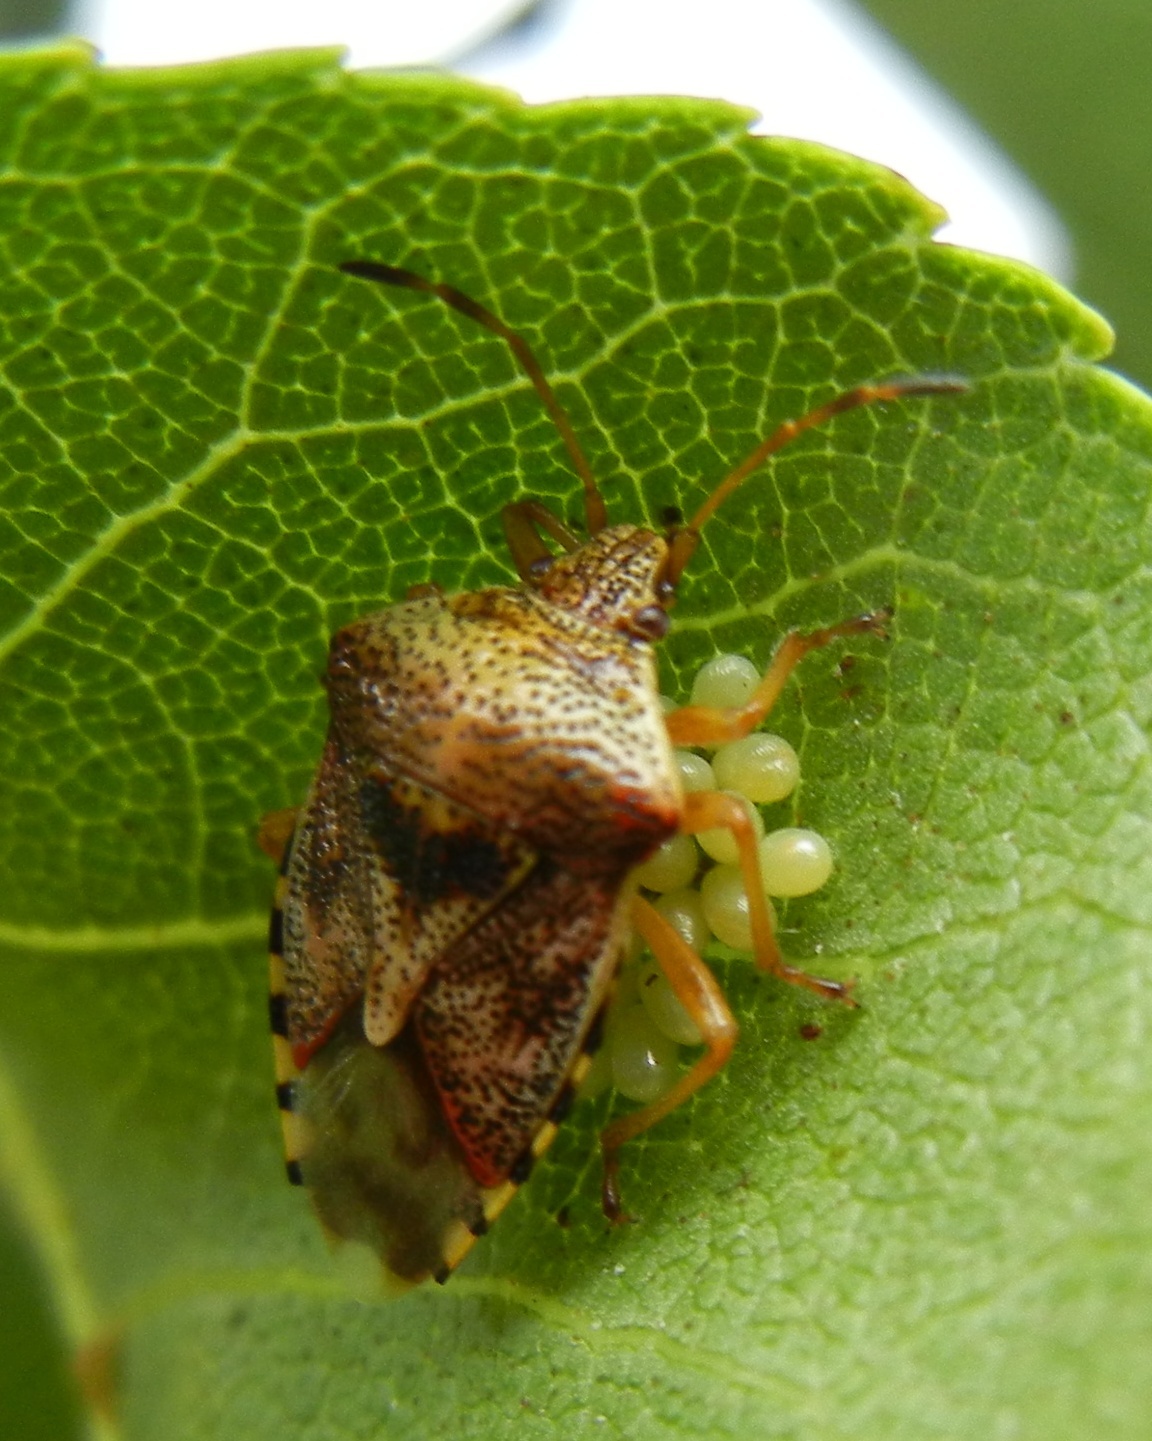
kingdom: Animalia
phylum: Arthropoda
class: Insecta
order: Hemiptera
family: Acanthosomatidae
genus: Elasmucha
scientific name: Elasmucha grisea
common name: Parent bug
